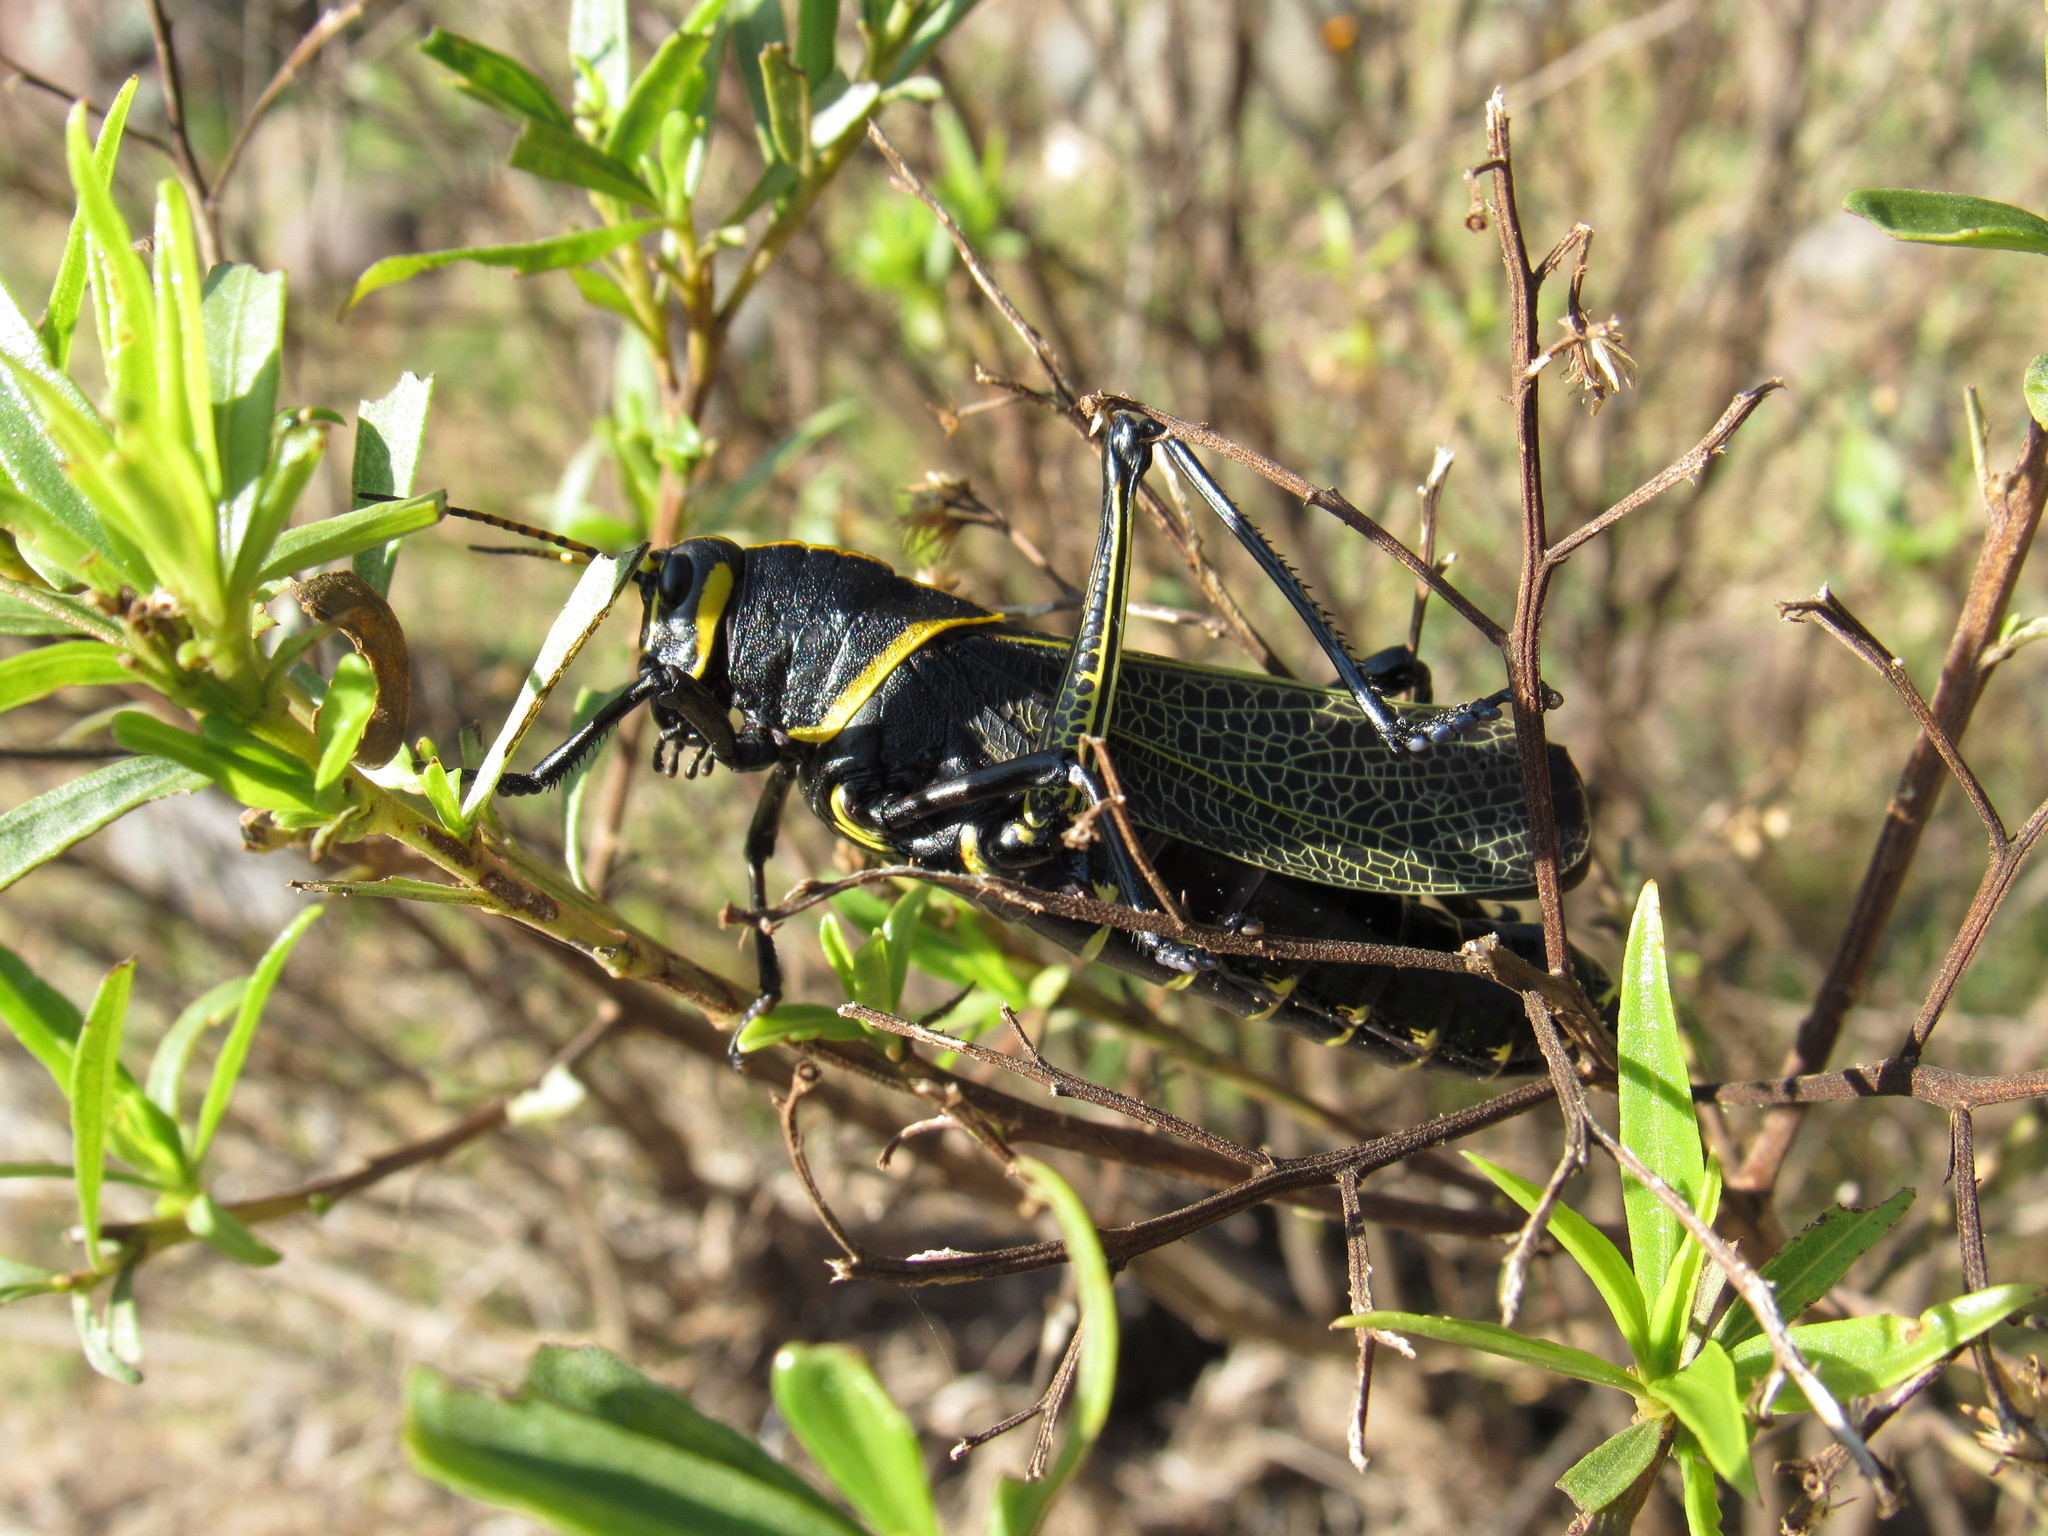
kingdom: Animalia
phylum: Arthropoda
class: Insecta
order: Orthoptera
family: Romaleidae
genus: Romalea
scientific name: Romalea
